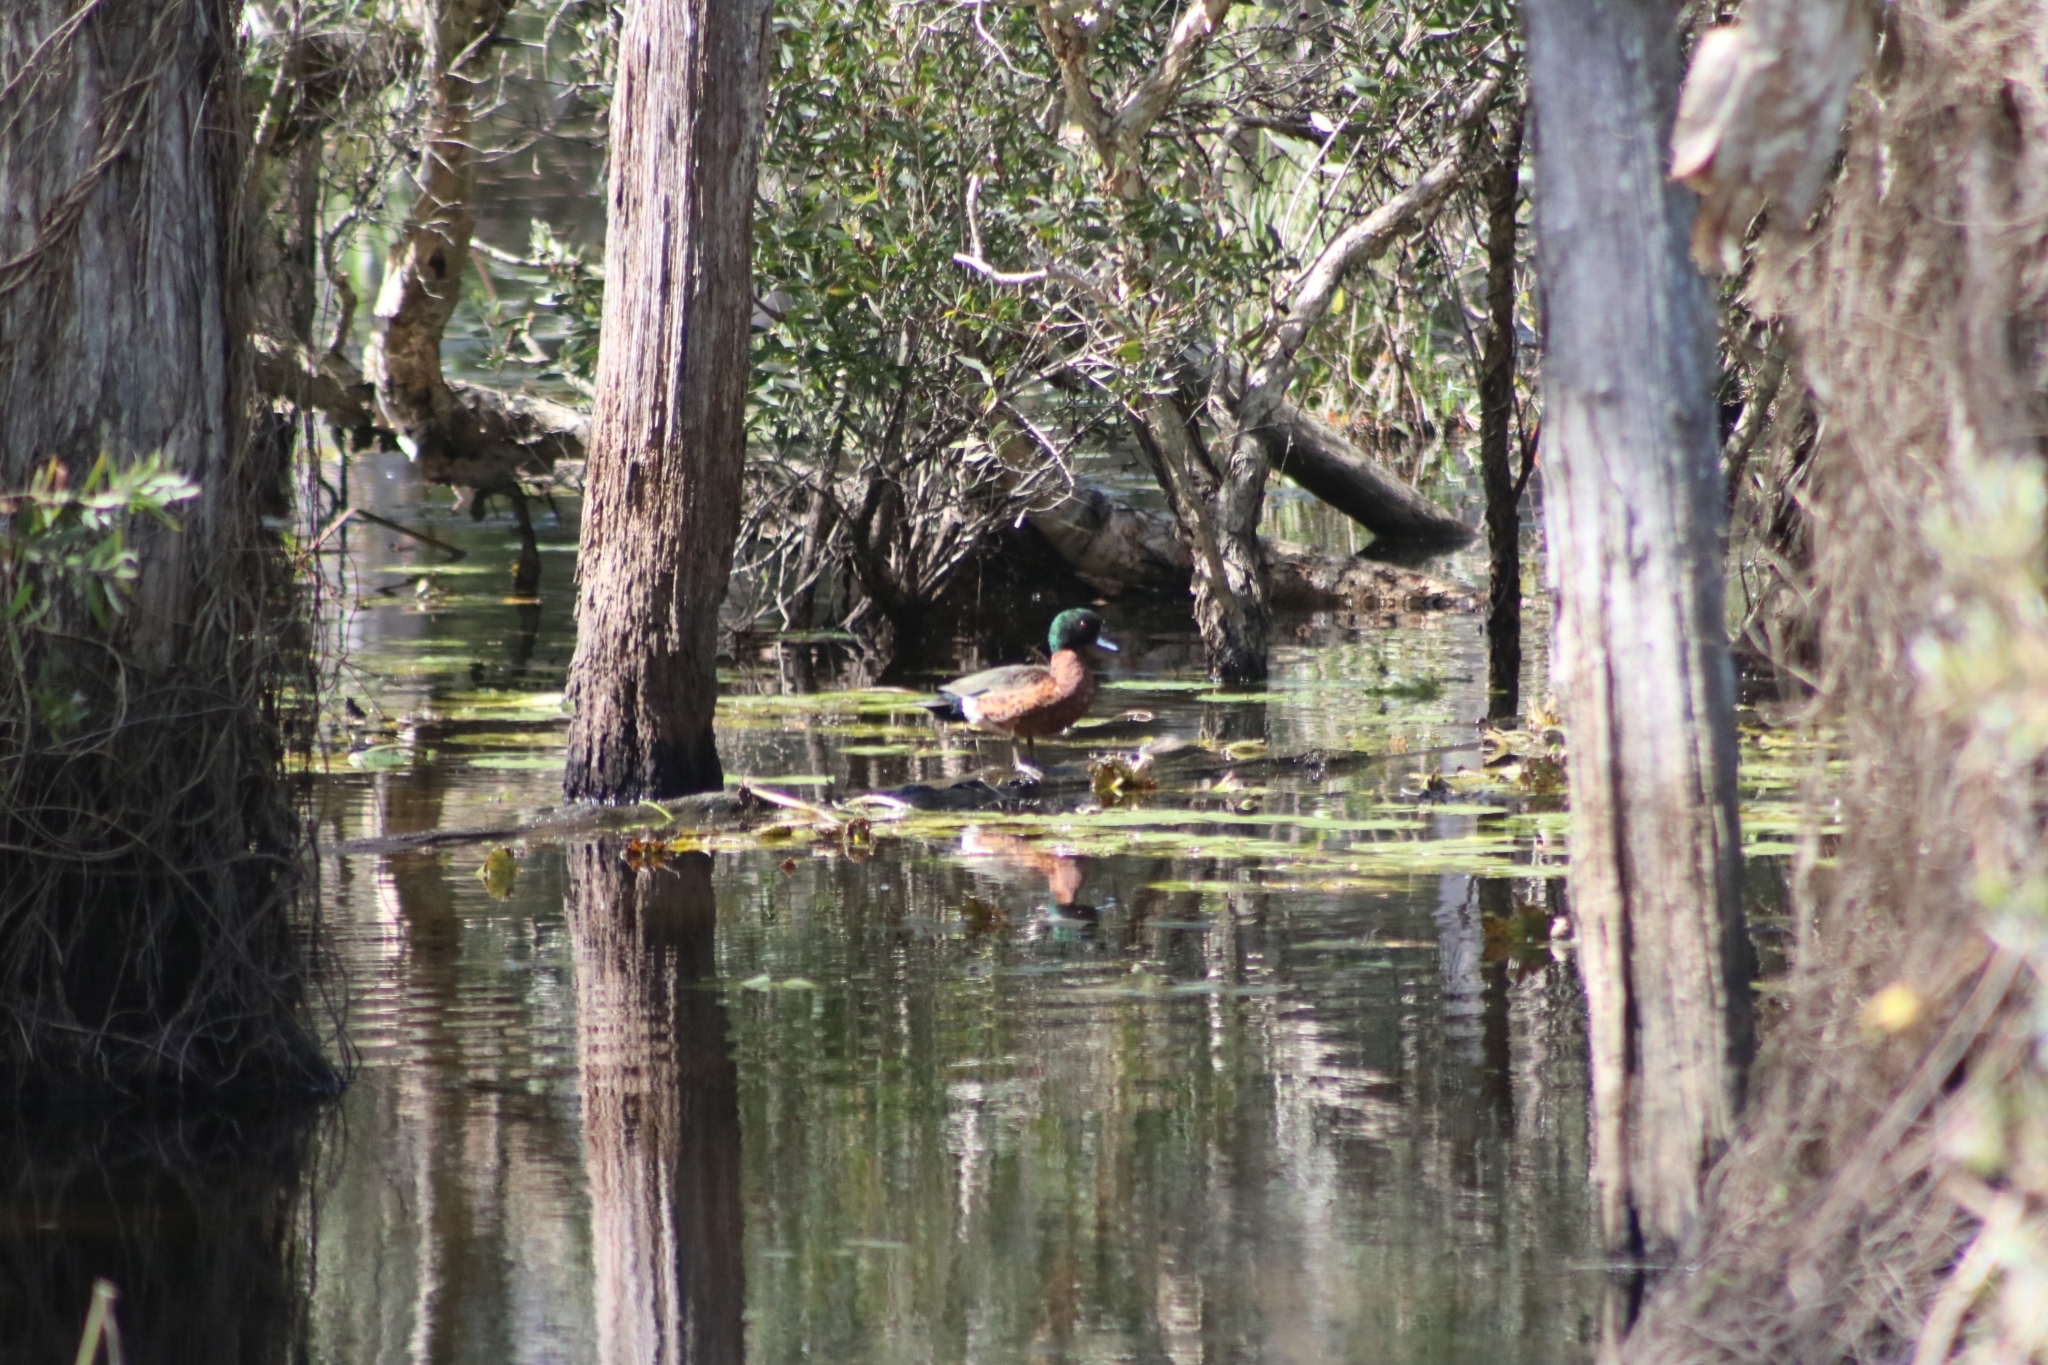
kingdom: Animalia
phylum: Chordata
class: Aves
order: Anseriformes
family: Anatidae
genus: Anas
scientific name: Anas castanea
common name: Chestnut teal
